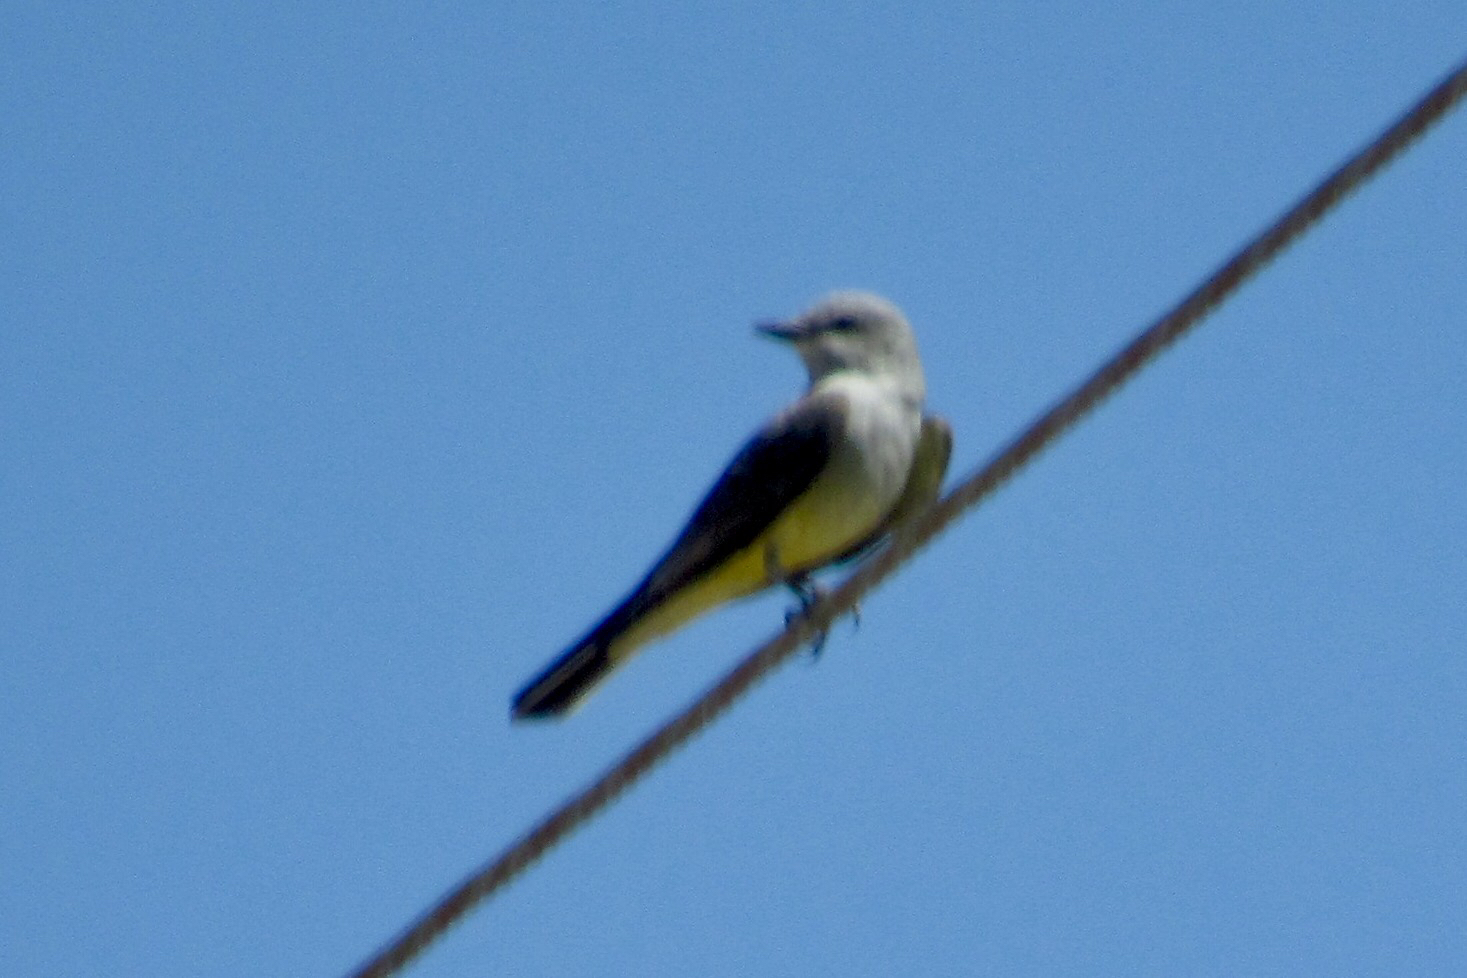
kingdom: Animalia
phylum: Chordata
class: Aves
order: Passeriformes
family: Tyrannidae
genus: Tyrannus
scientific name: Tyrannus verticalis
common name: Western kingbird
